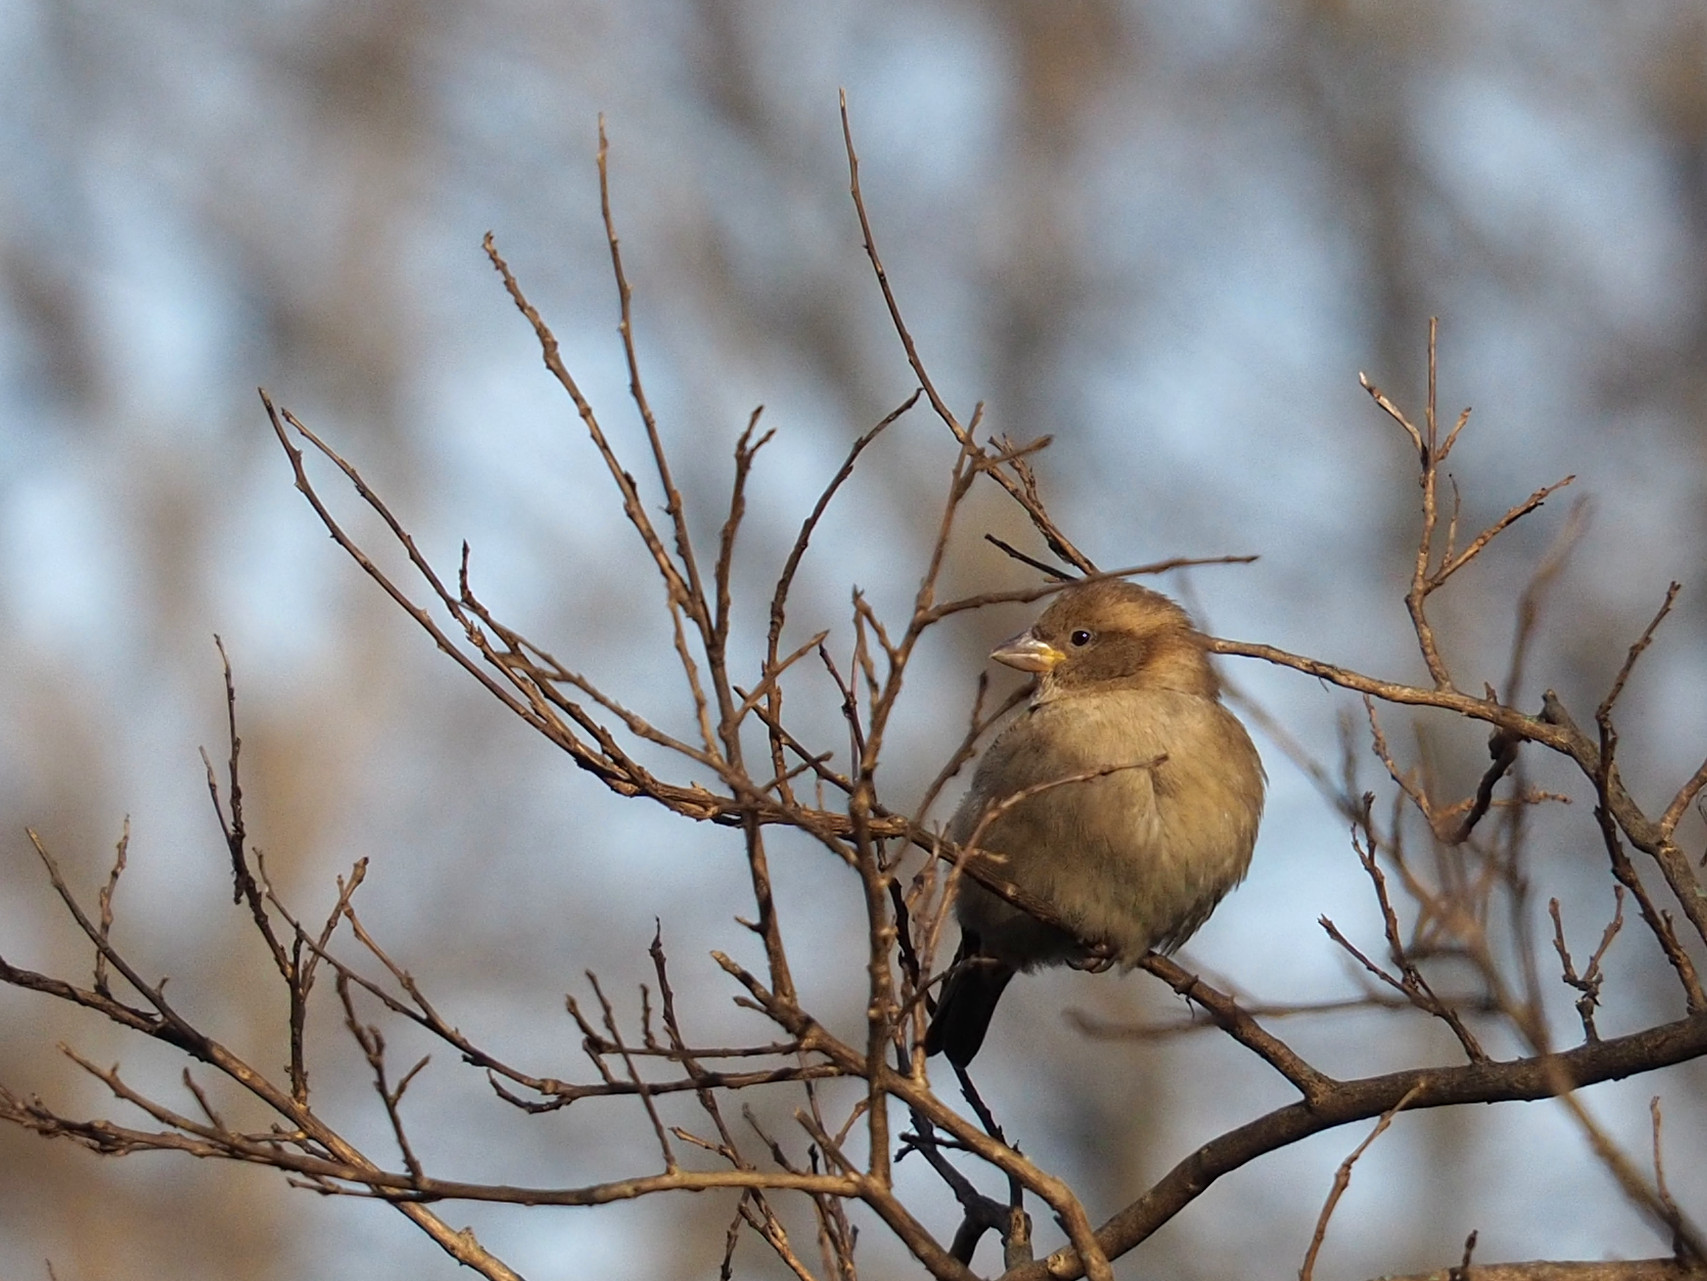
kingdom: Animalia
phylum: Chordata
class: Aves
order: Passeriformes
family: Passeridae
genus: Passer
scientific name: Passer domesticus
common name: House sparrow
